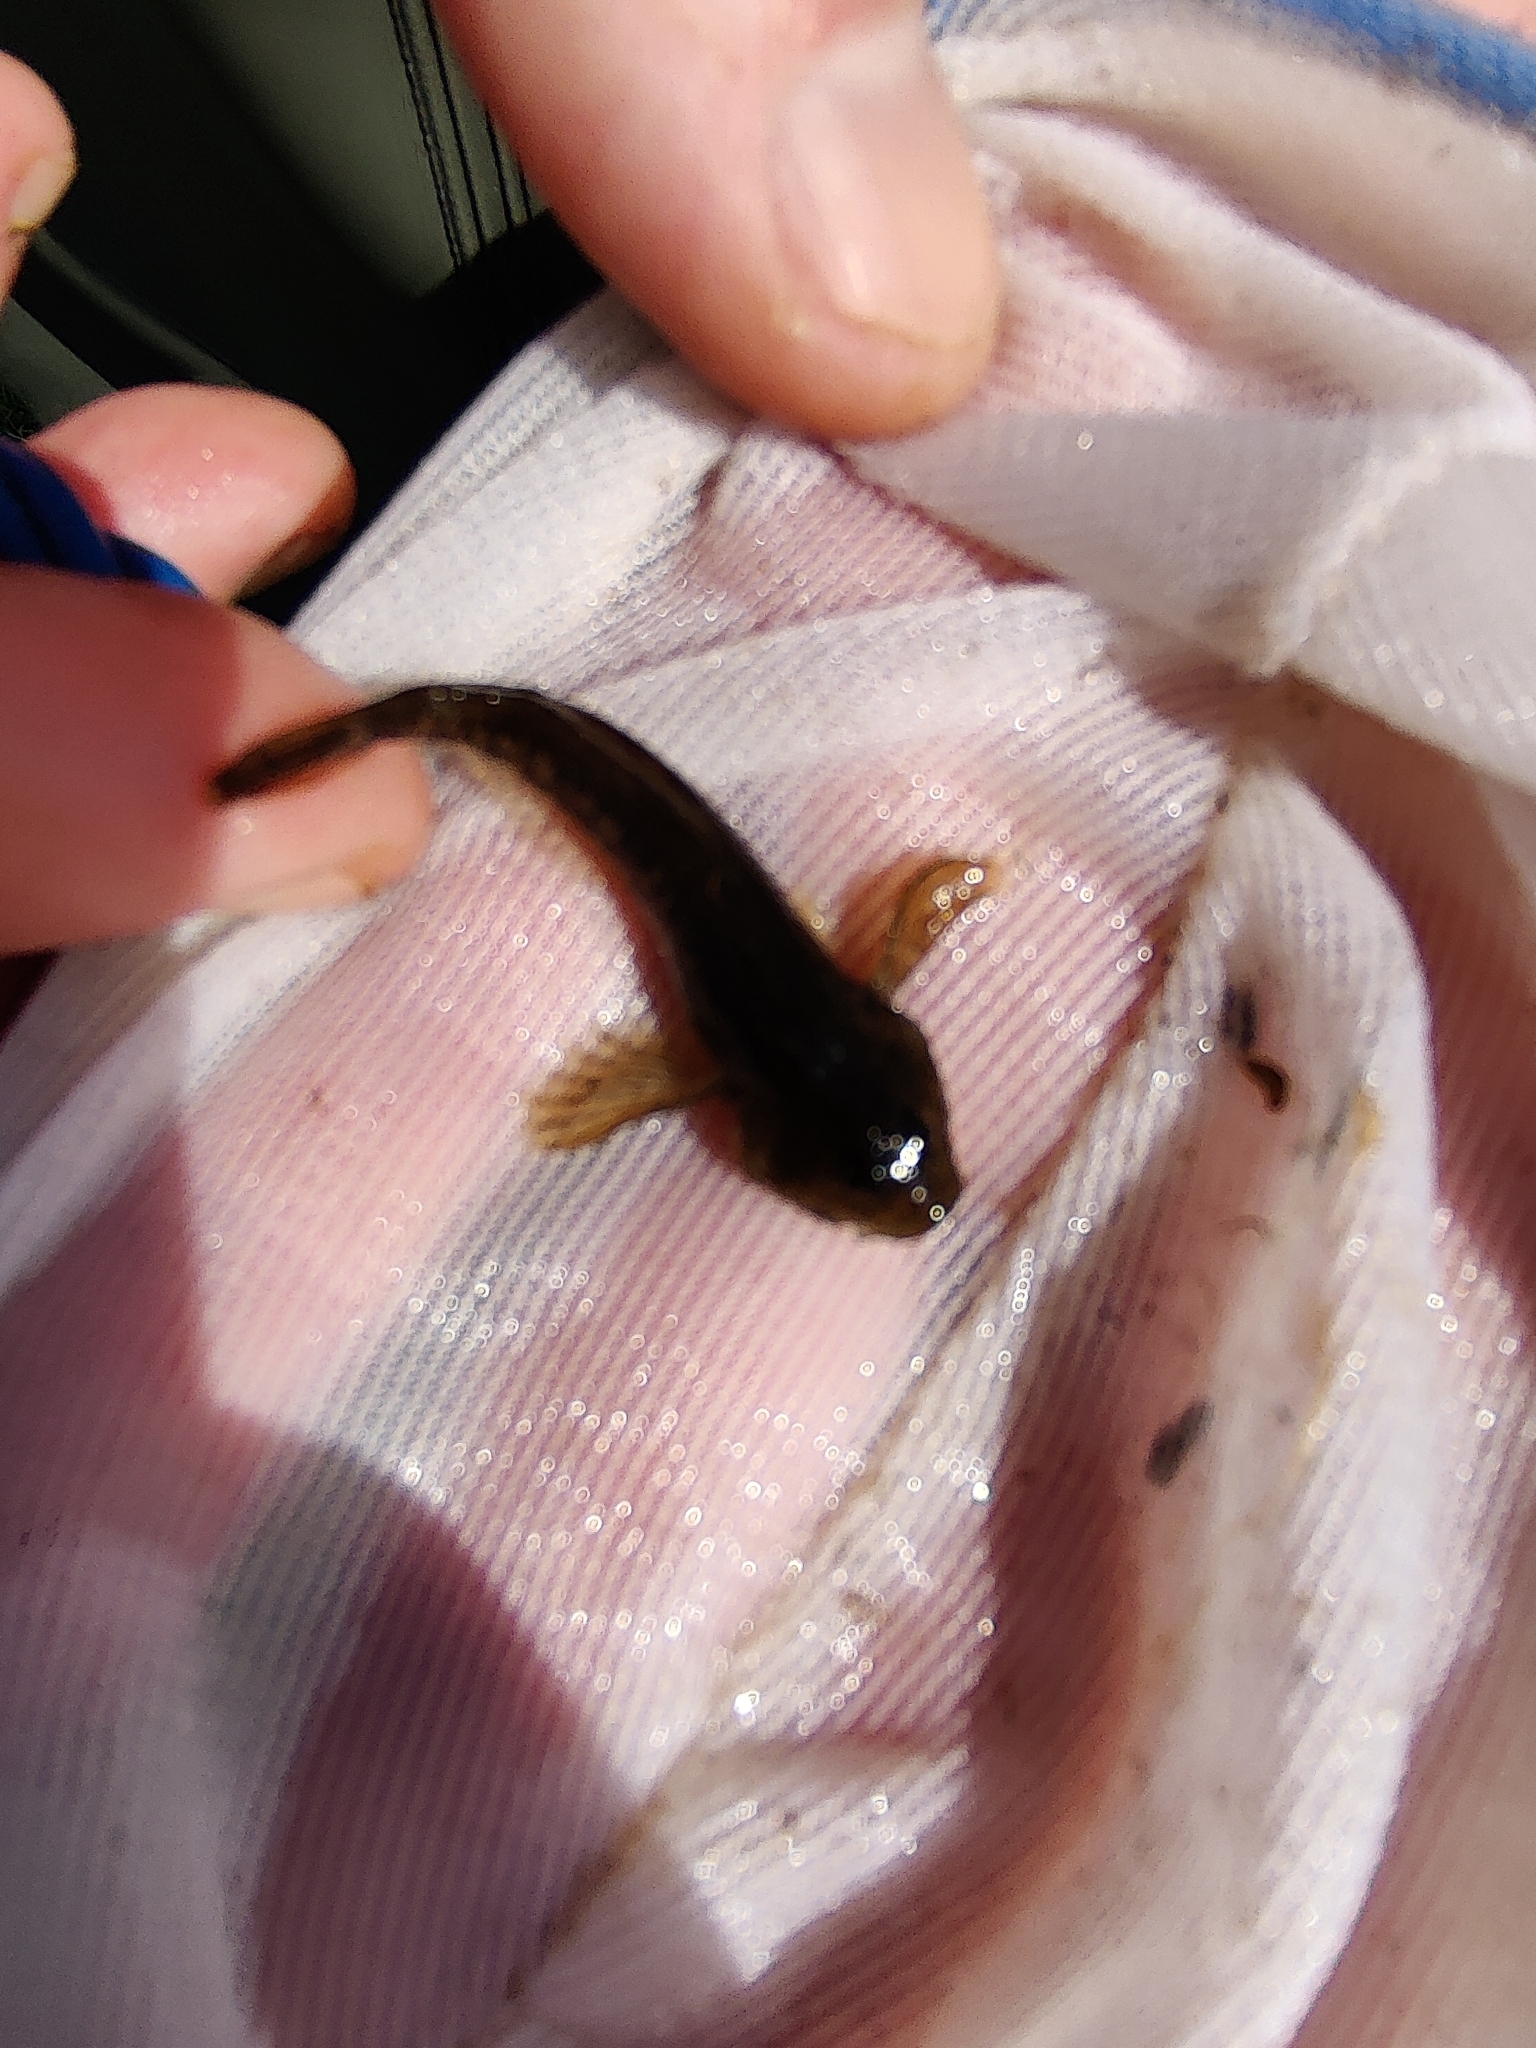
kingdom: Animalia
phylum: Chordata
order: Scorpaeniformes
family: Cottidae
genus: Cottus
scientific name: Cottus perifretum
